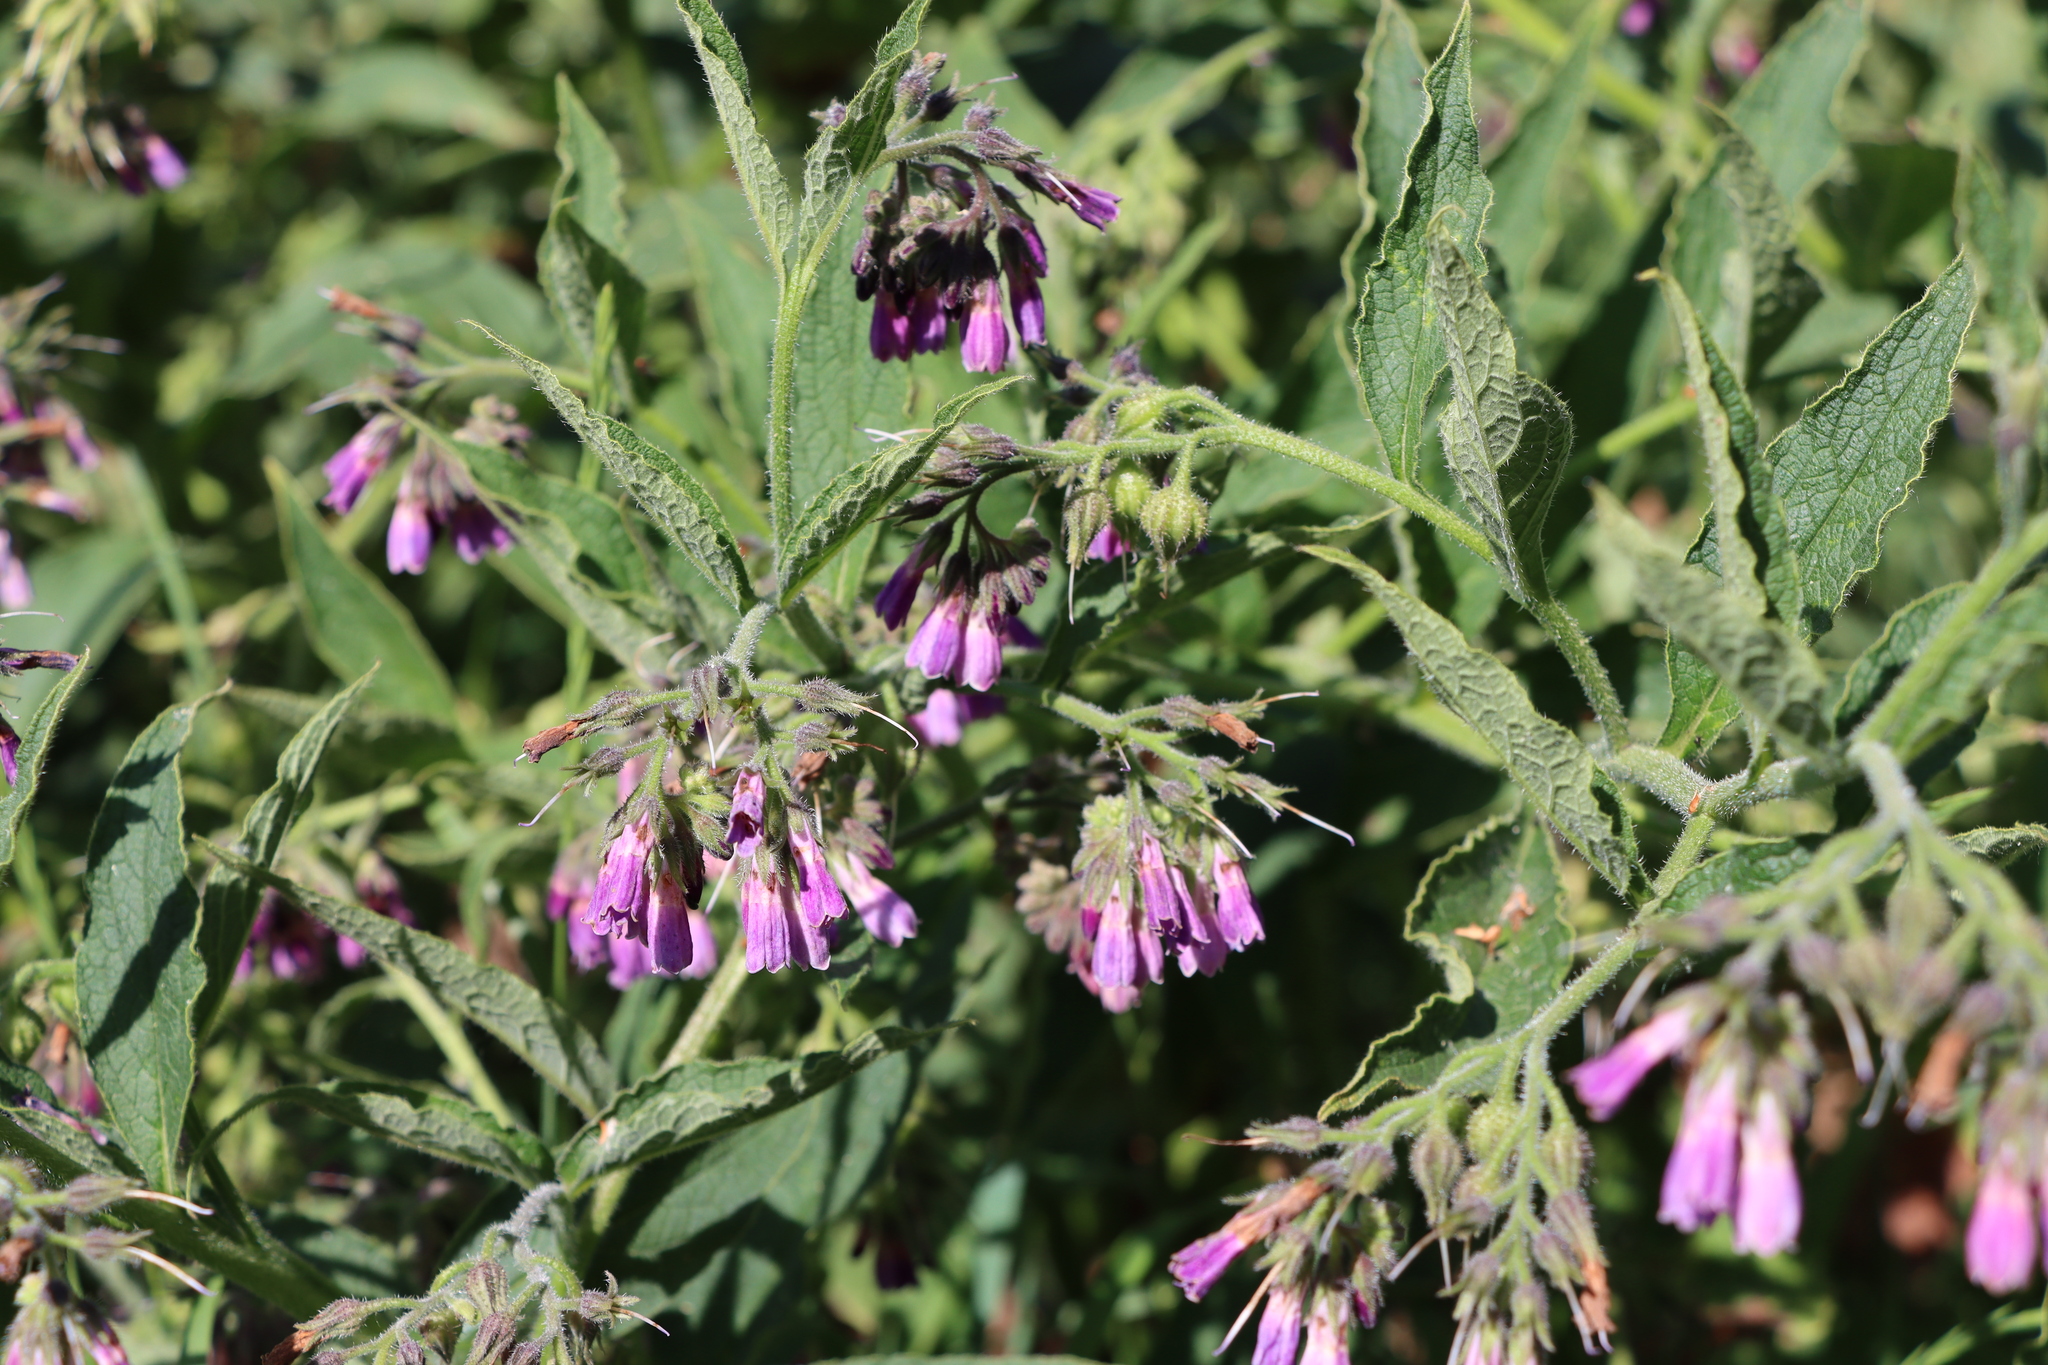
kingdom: Plantae
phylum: Tracheophyta
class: Magnoliopsida
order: Boraginales
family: Boraginaceae
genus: Symphytum
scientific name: Symphytum uplandicum
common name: Russian comfrey
